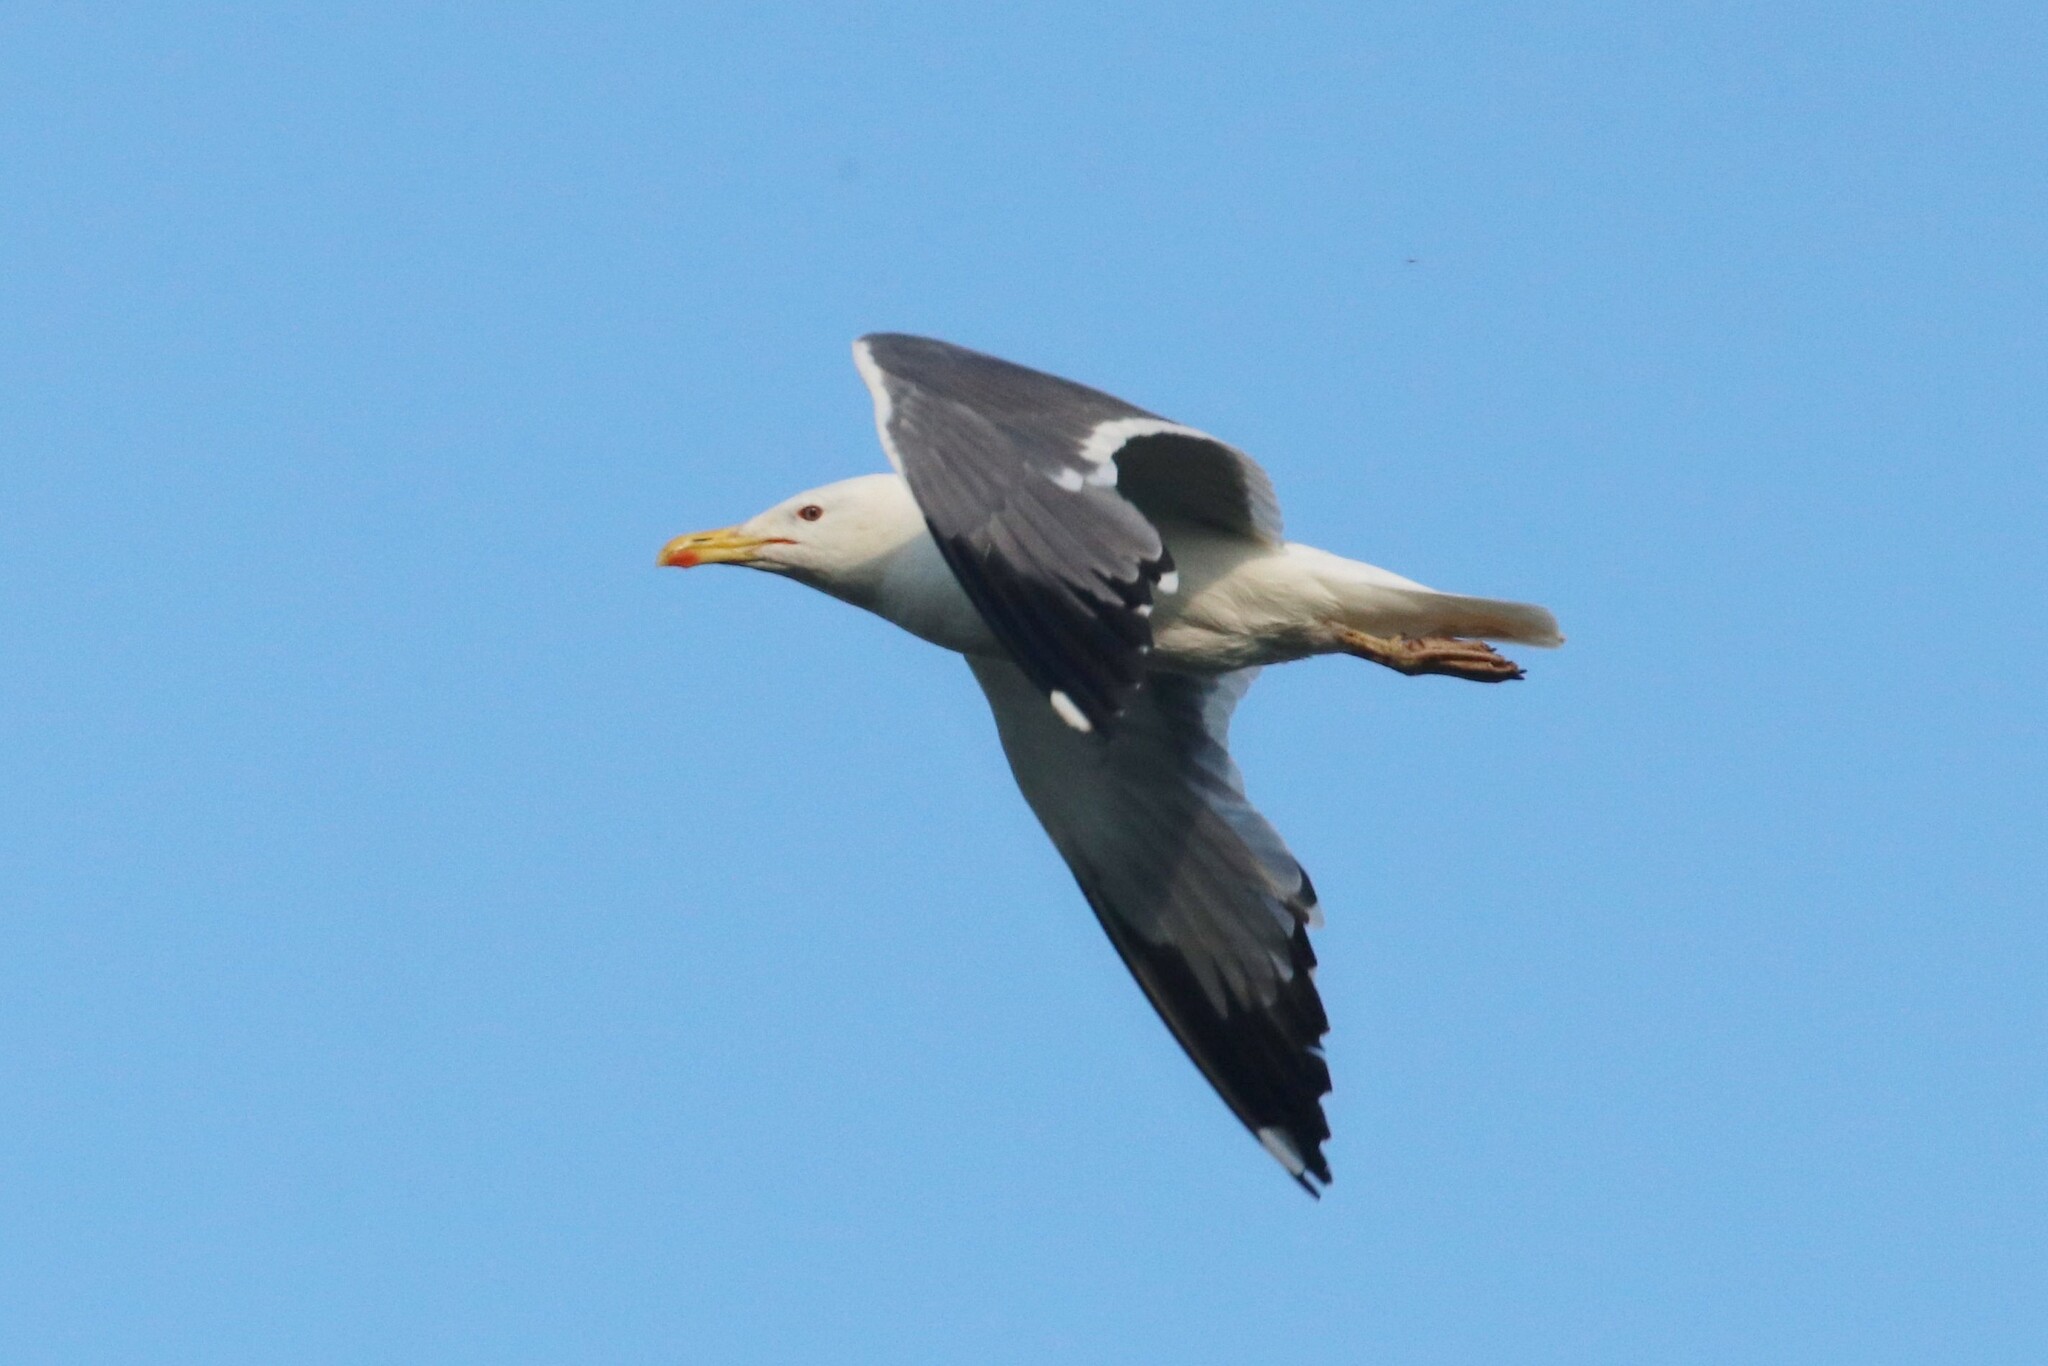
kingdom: Animalia
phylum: Chordata
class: Aves
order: Charadriiformes
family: Laridae
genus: Larus
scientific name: Larus fuscus
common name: Lesser black-backed gull
